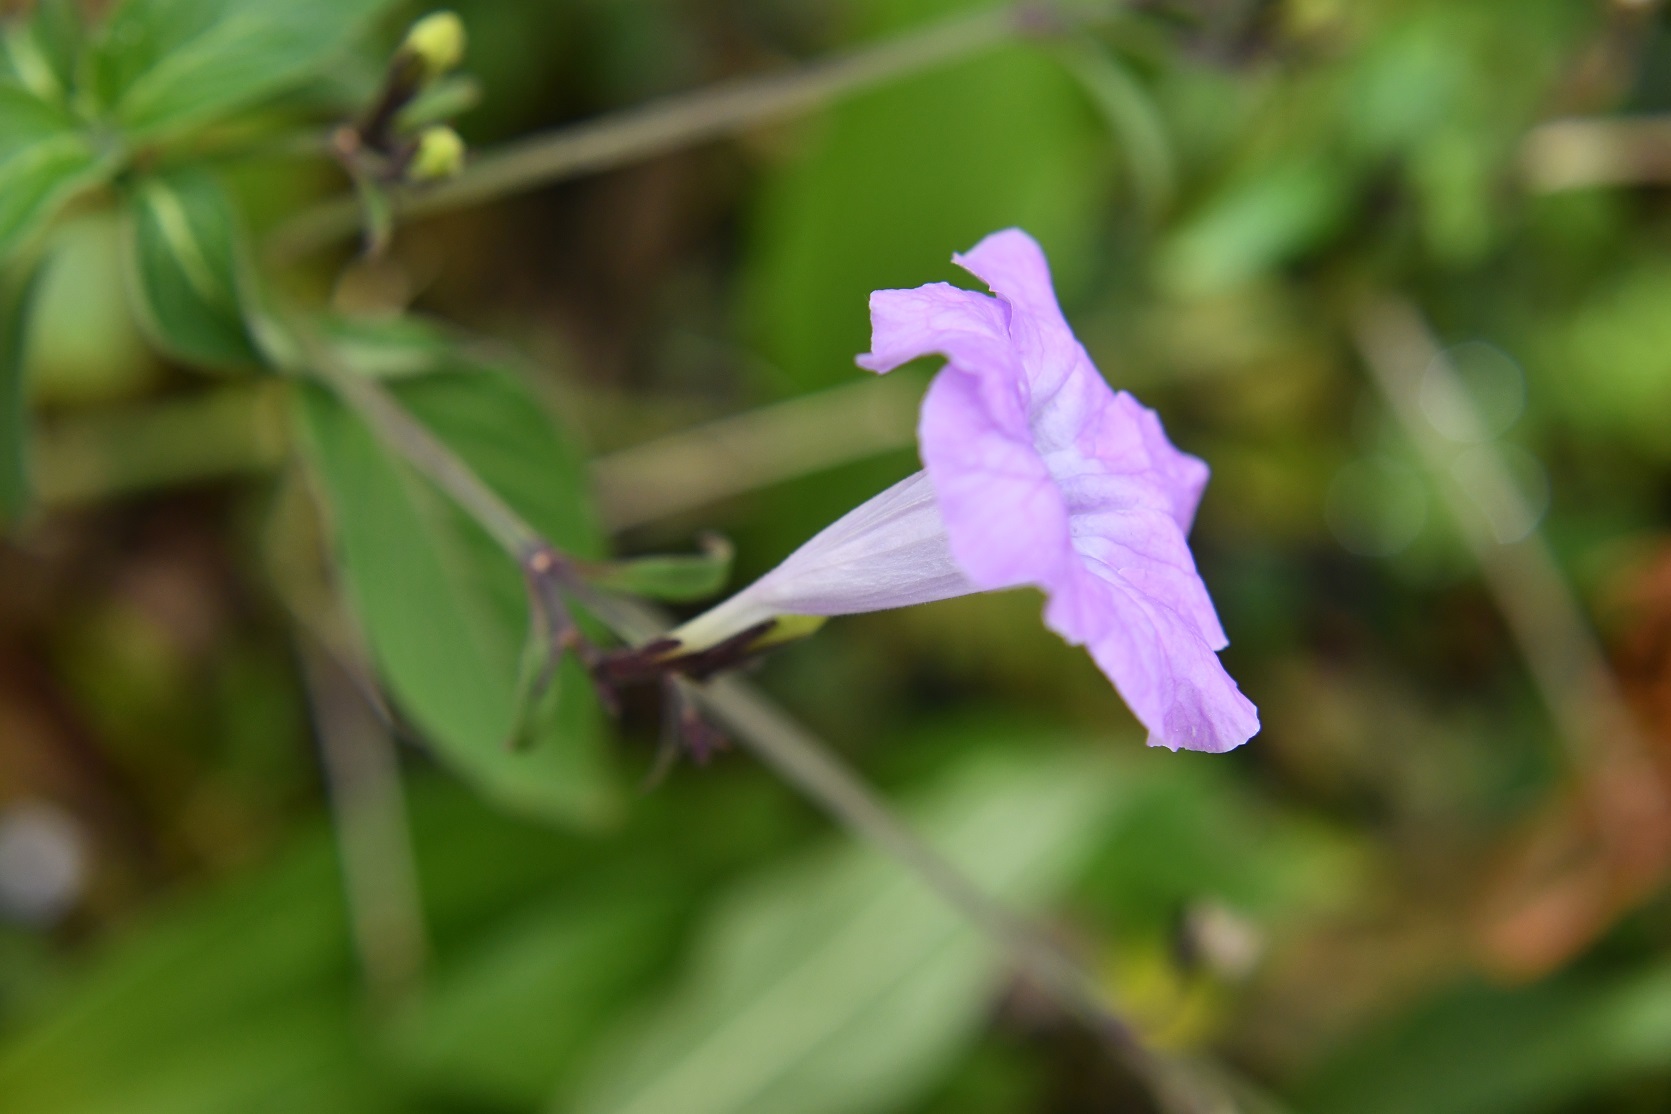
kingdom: Plantae
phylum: Tracheophyta
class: Magnoliopsida
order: Lamiales
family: Acanthaceae
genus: Ruellia
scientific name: Ruellia breedlovei
